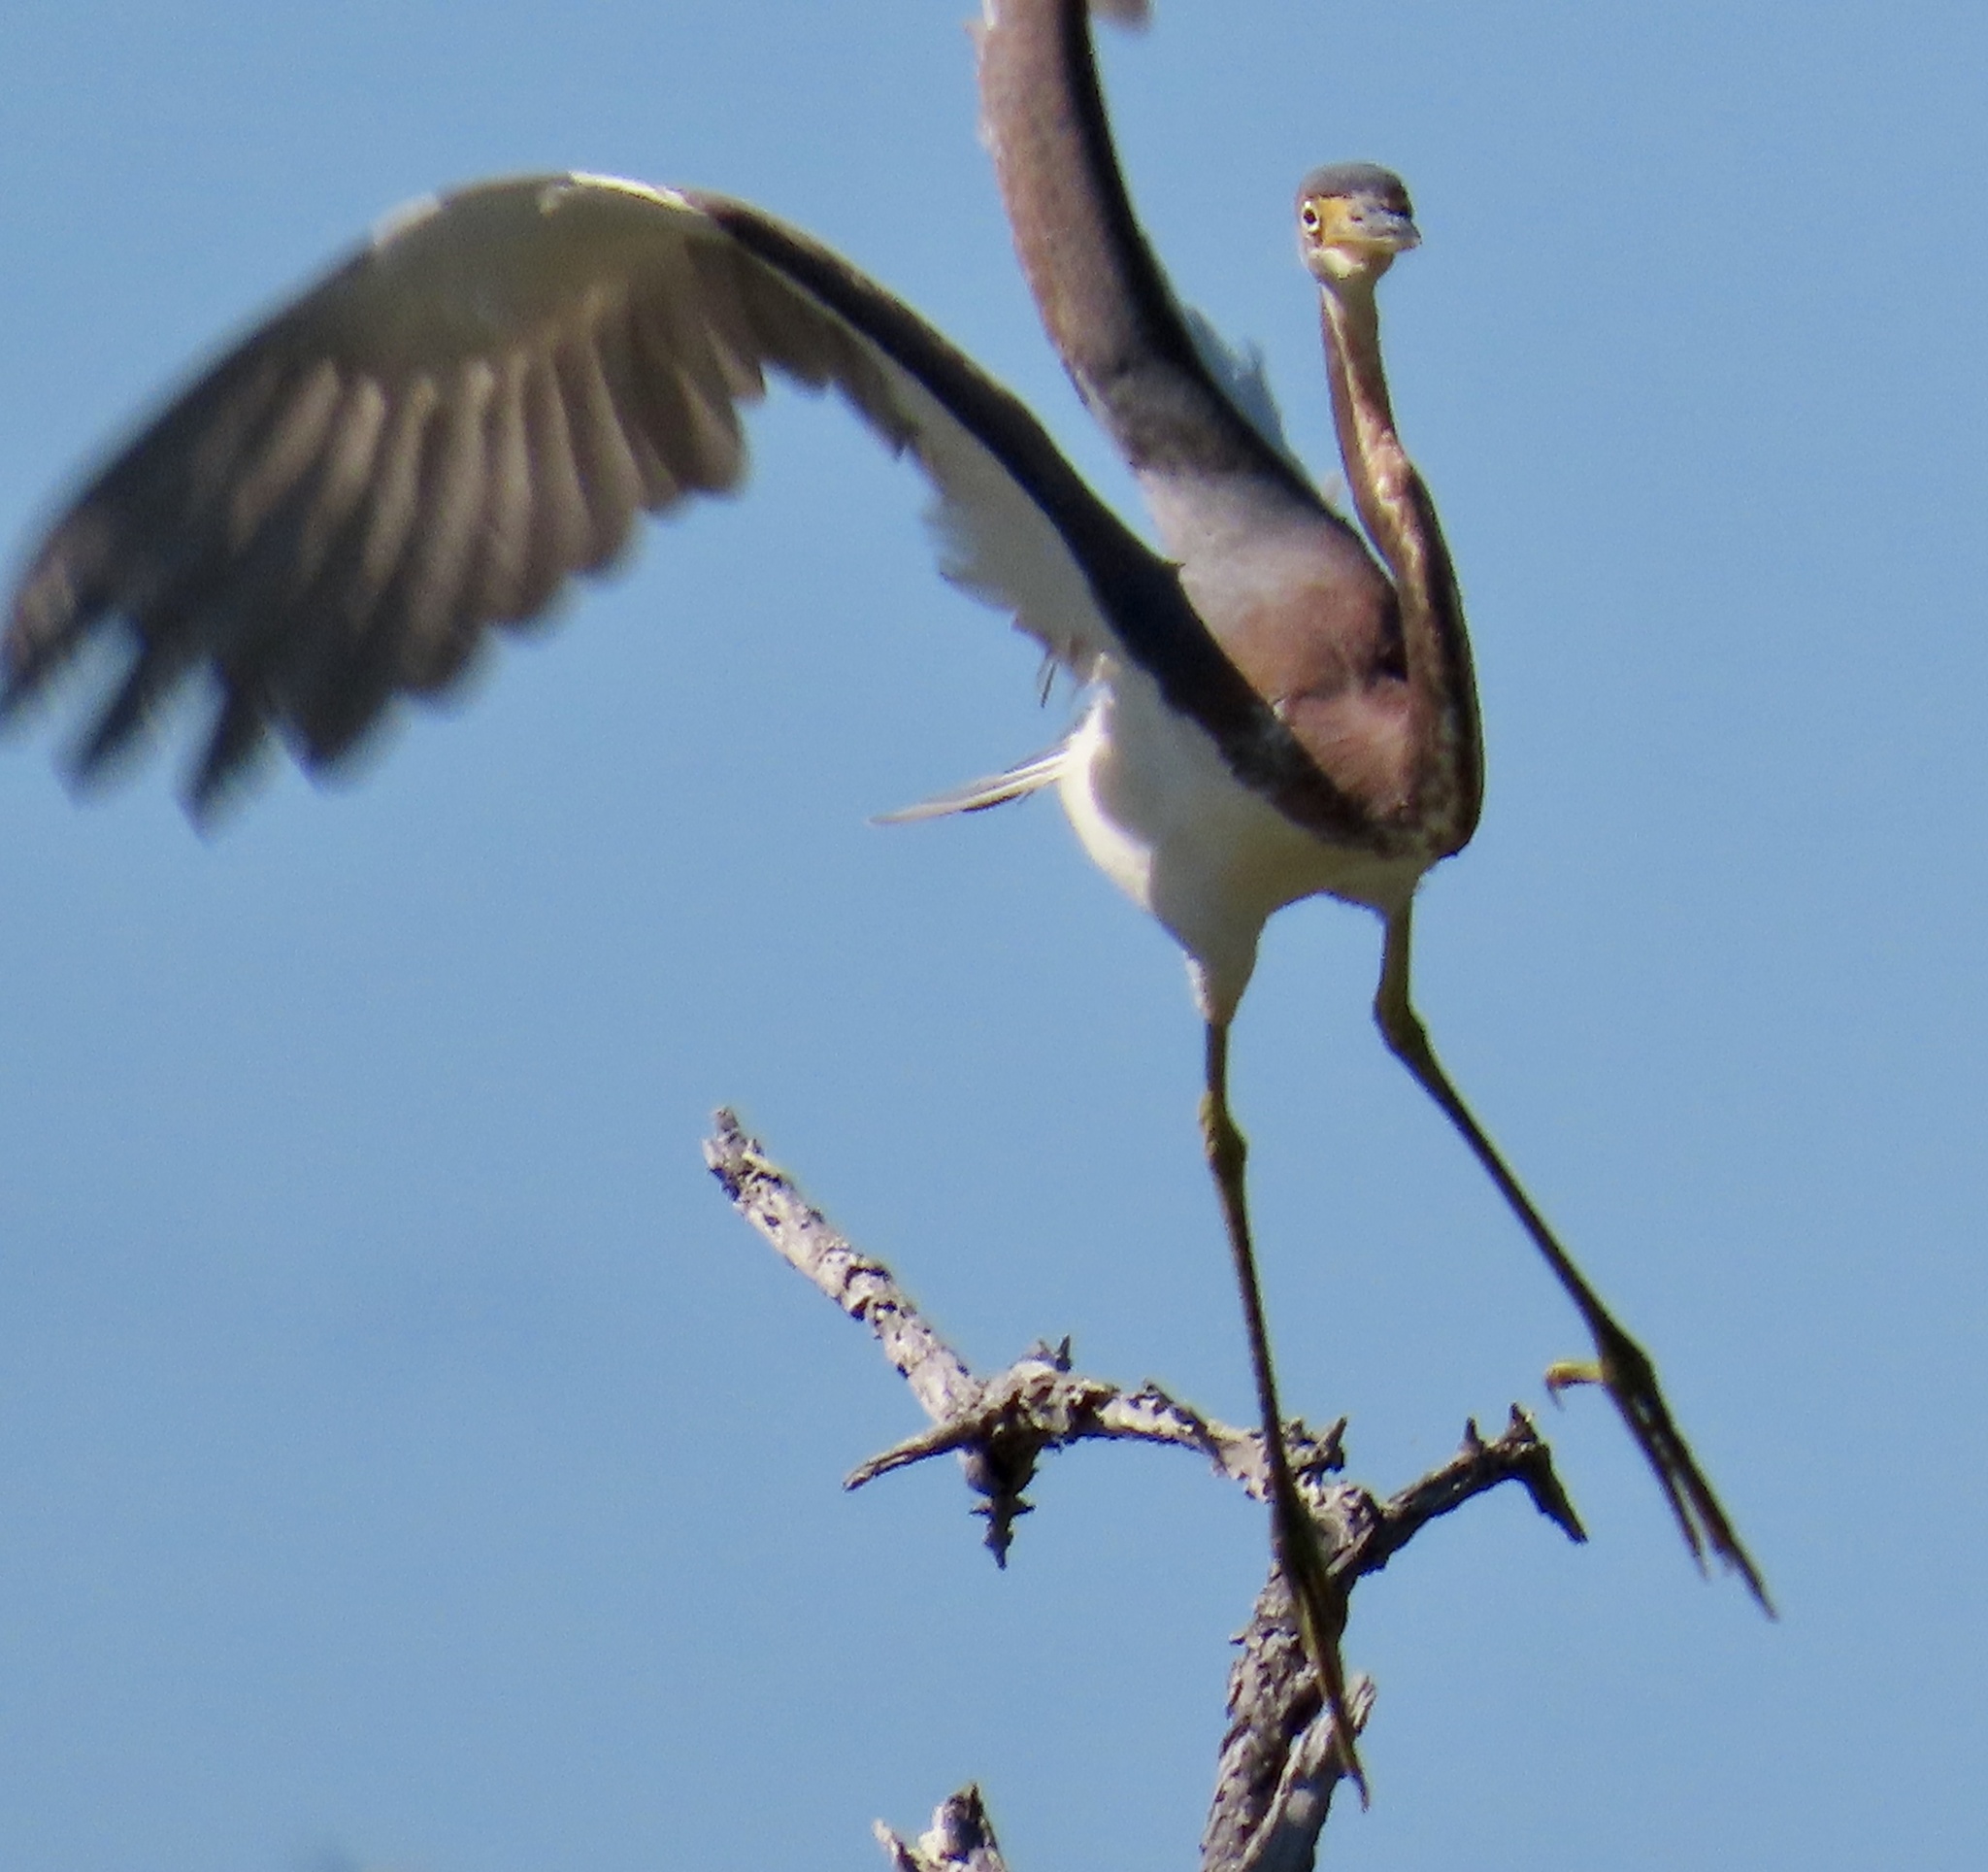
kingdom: Animalia
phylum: Chordata
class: Aves
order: Pelecaniformes
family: Ardeidae
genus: Egretta
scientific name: Egretta tricolor
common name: Tricolored heron
